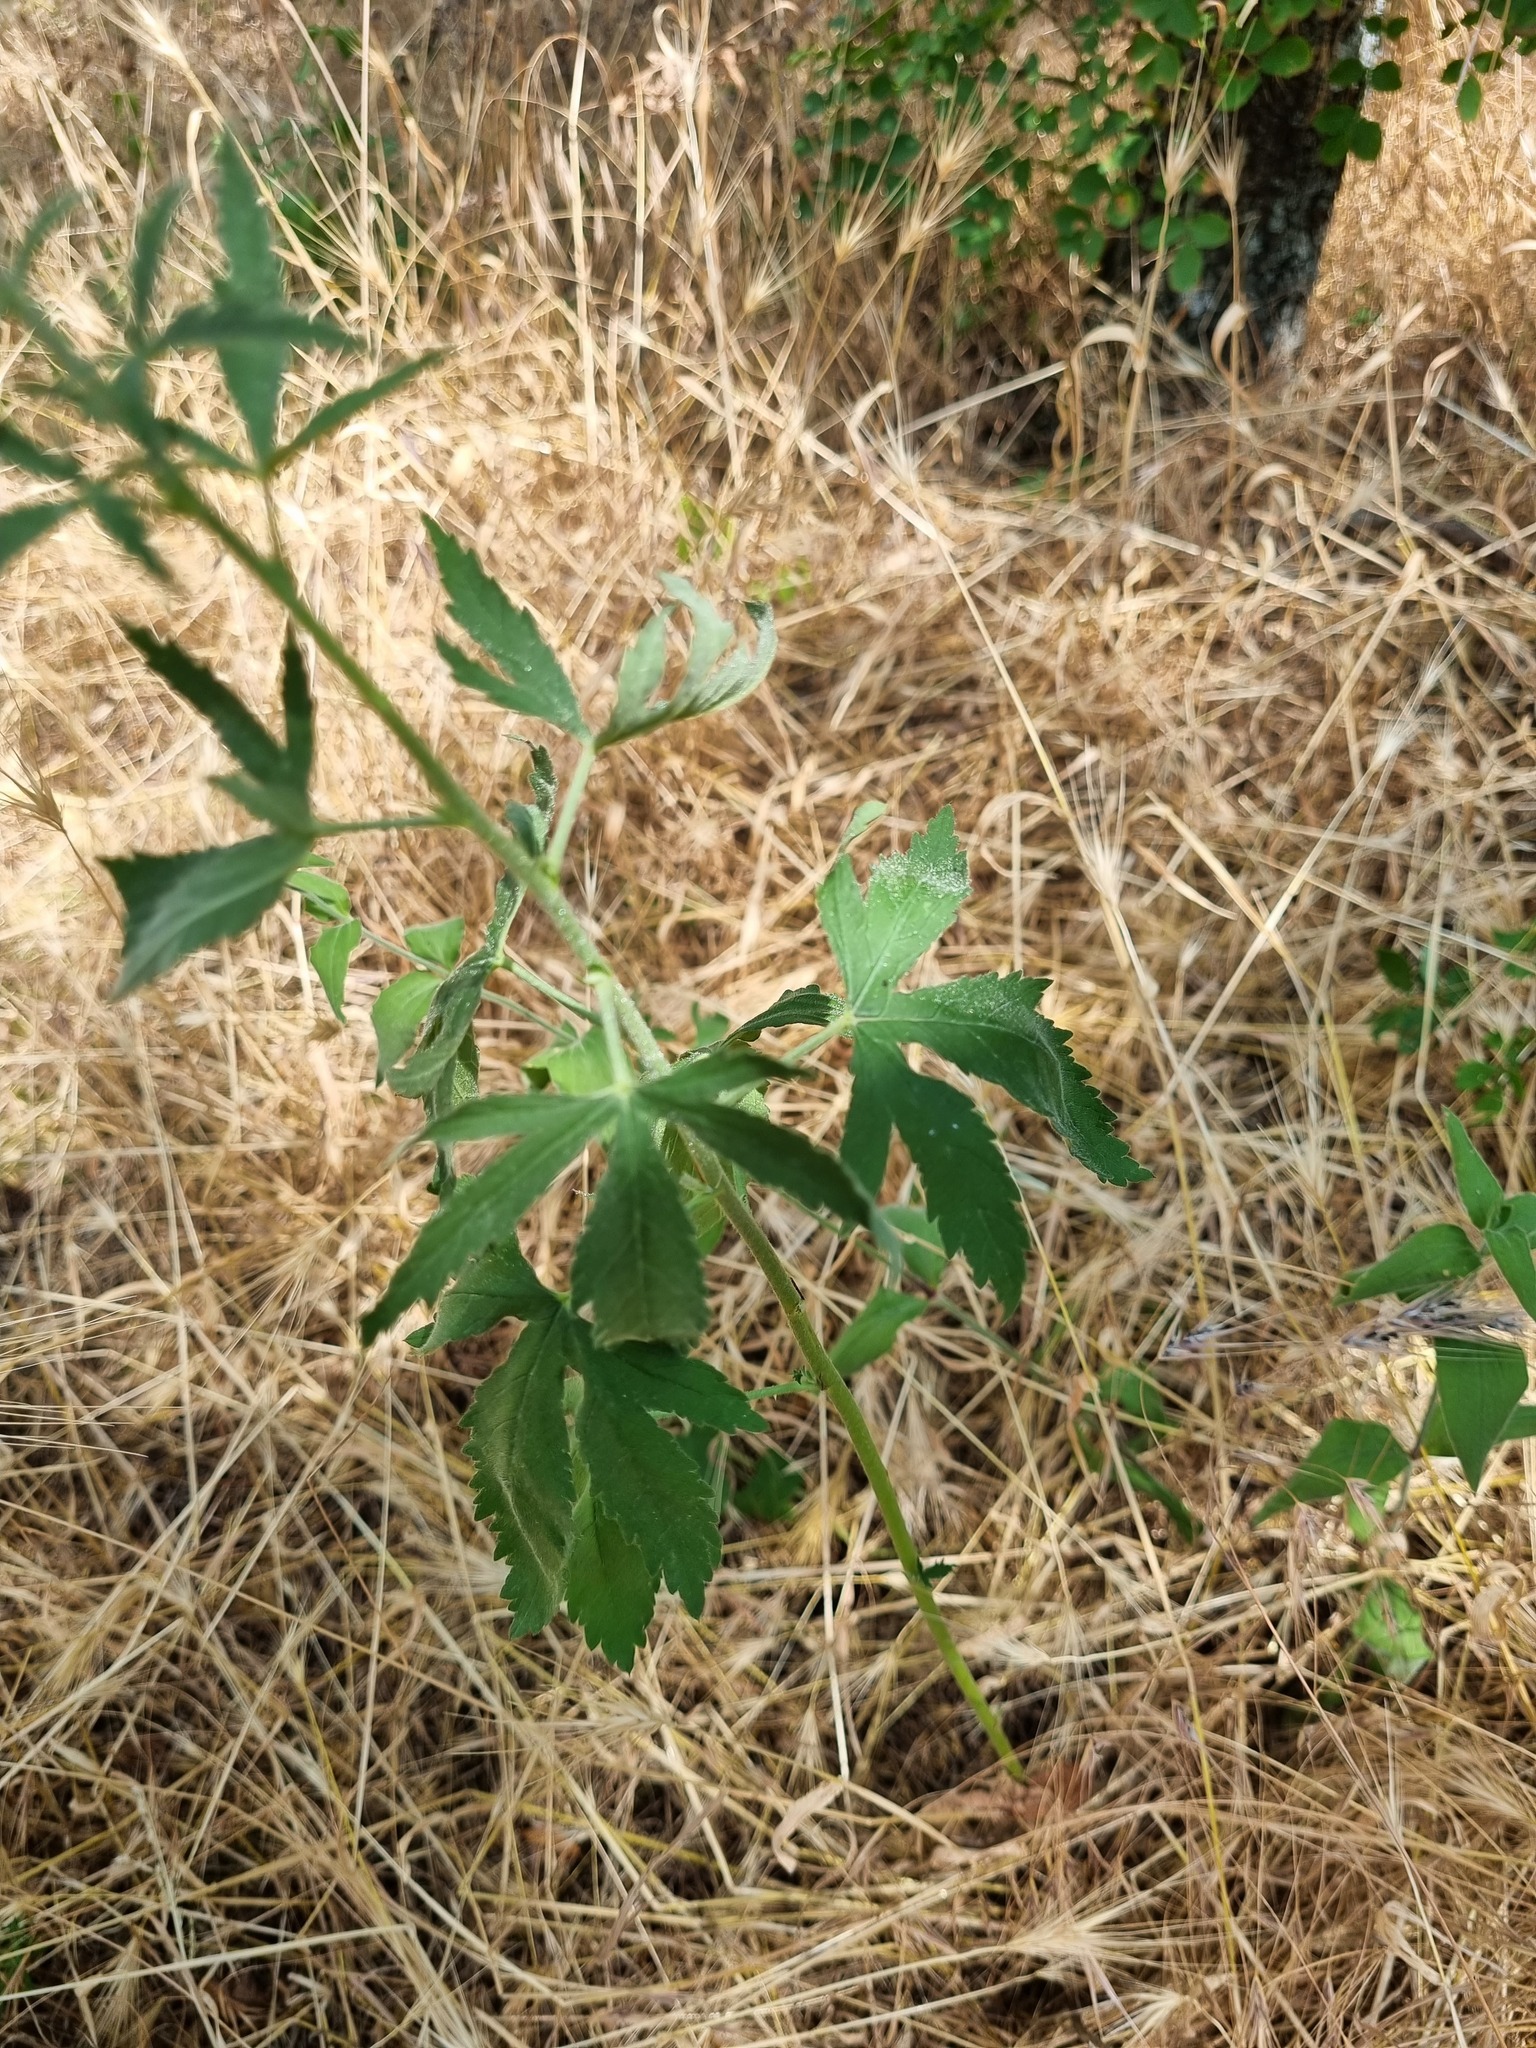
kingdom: Plantae
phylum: Tracheophyta
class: Magnoliopsida
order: Malvales
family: Malvaceae
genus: Althaea
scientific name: Althaea cannabina
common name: Palm-leaf marshmallow
